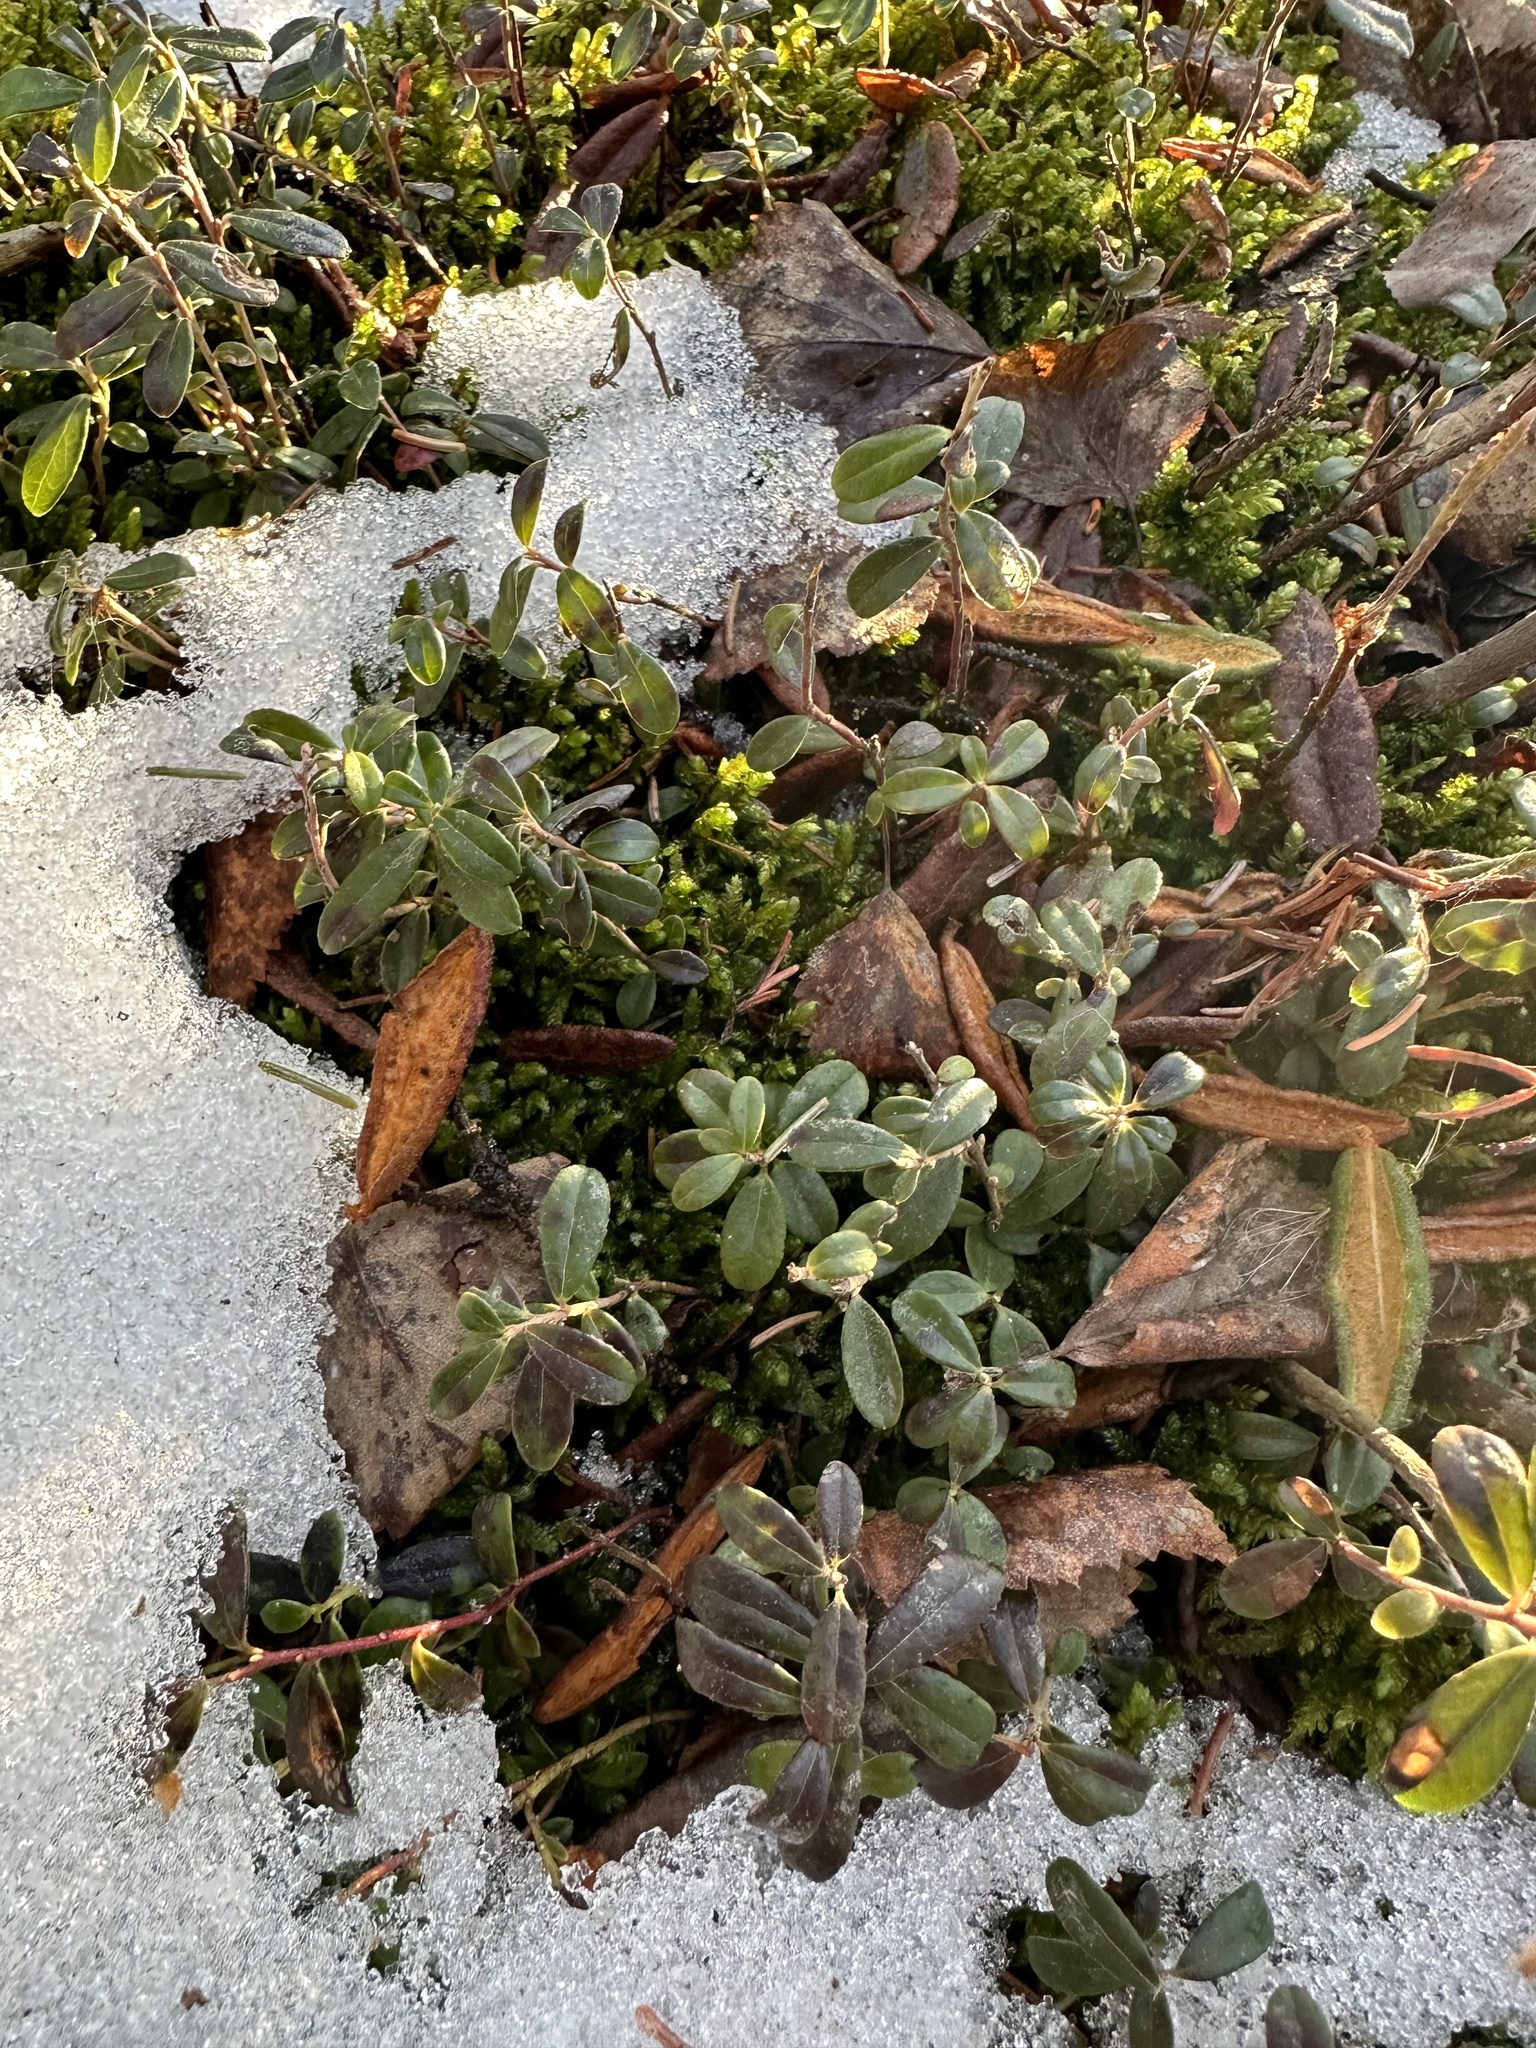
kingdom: Plantae
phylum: Tracheophyta
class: Magnoliopsida
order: Ericales
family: Ericaceae
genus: Vaccinium
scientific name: Vaccinium vitis-idaea
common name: Cowberry
